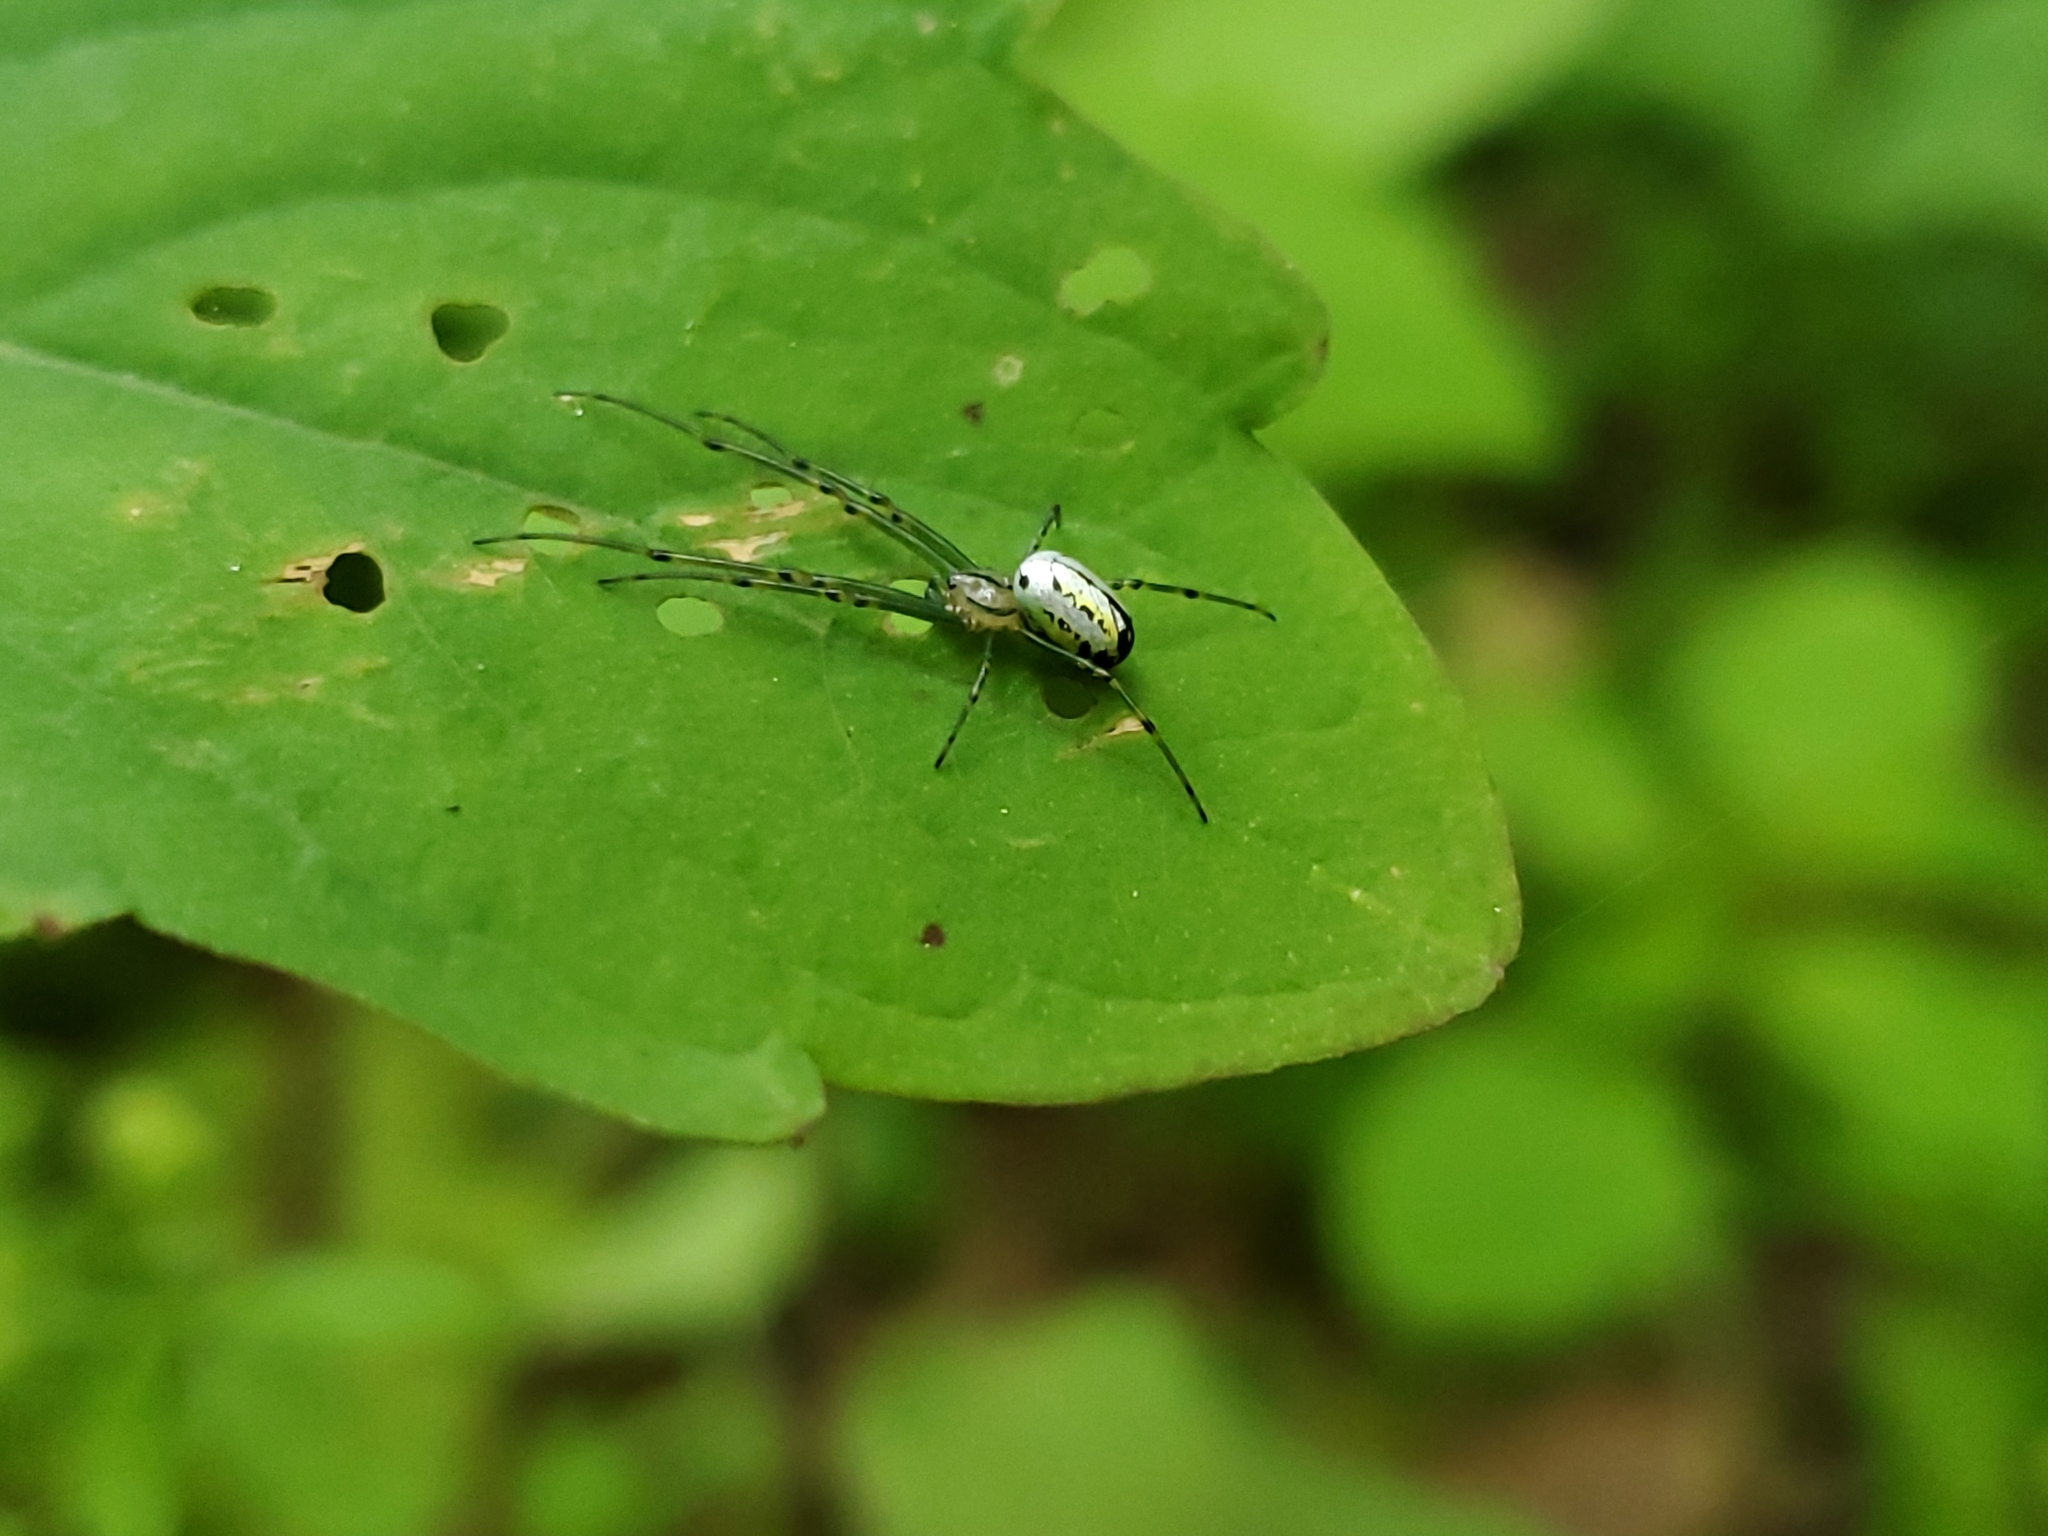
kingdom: Animalia
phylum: Arthropoda
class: Arachnida
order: Araneae
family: Tetragnathidae
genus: Leucauge
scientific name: Leucauge venusta
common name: Longjawed orb weavers
